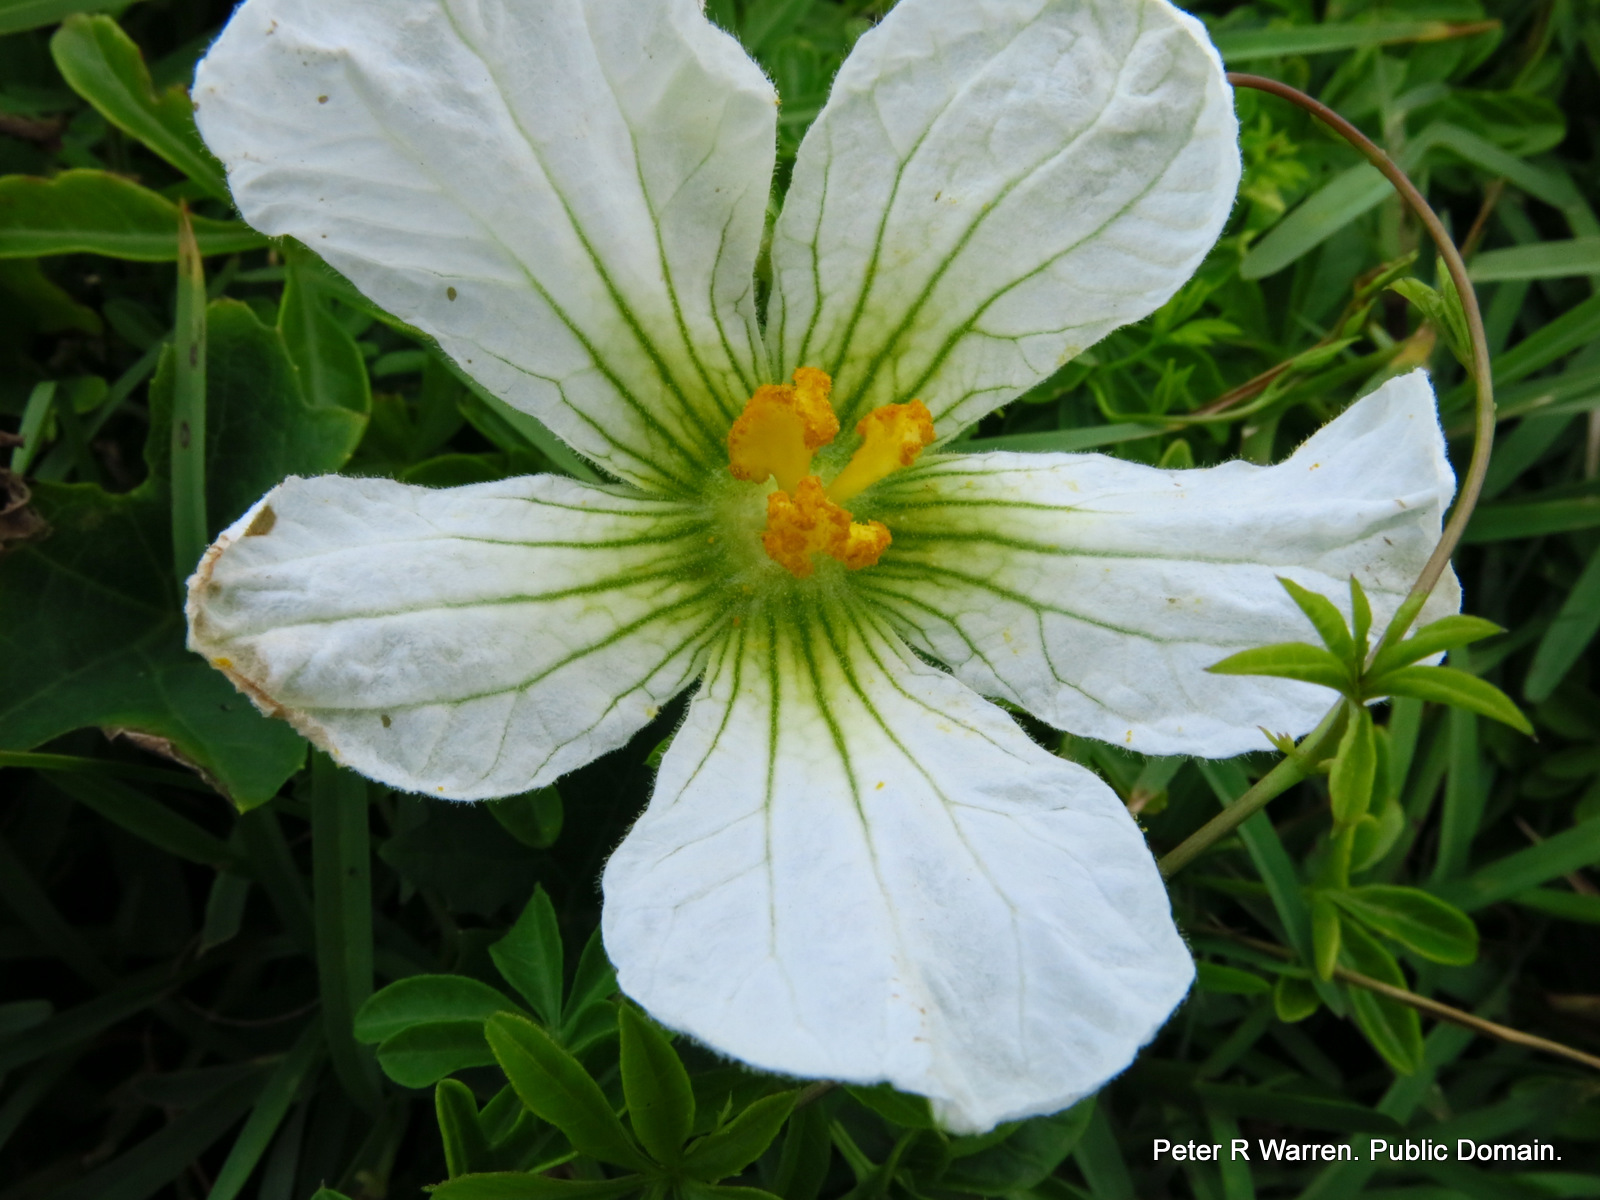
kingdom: Plantae
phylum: Tracheophyta
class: Magnoliopsida
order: Cucurbitales
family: Cucurbitaceae
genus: Lagenaria
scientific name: Lagenaria sphaerica
